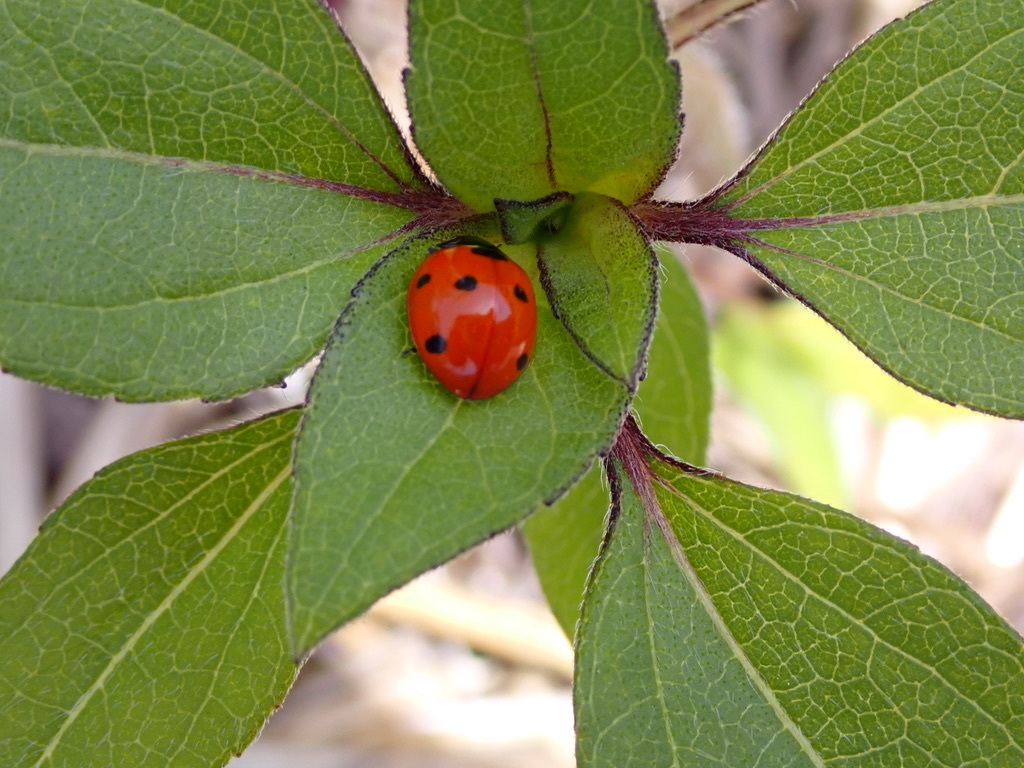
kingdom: Animalia
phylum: Arthropoda
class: Insecta
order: Coleoptera
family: Coccinellidae
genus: Coccinella
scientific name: Coccinella septempunctata
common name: Sevenspotted lady beetle
